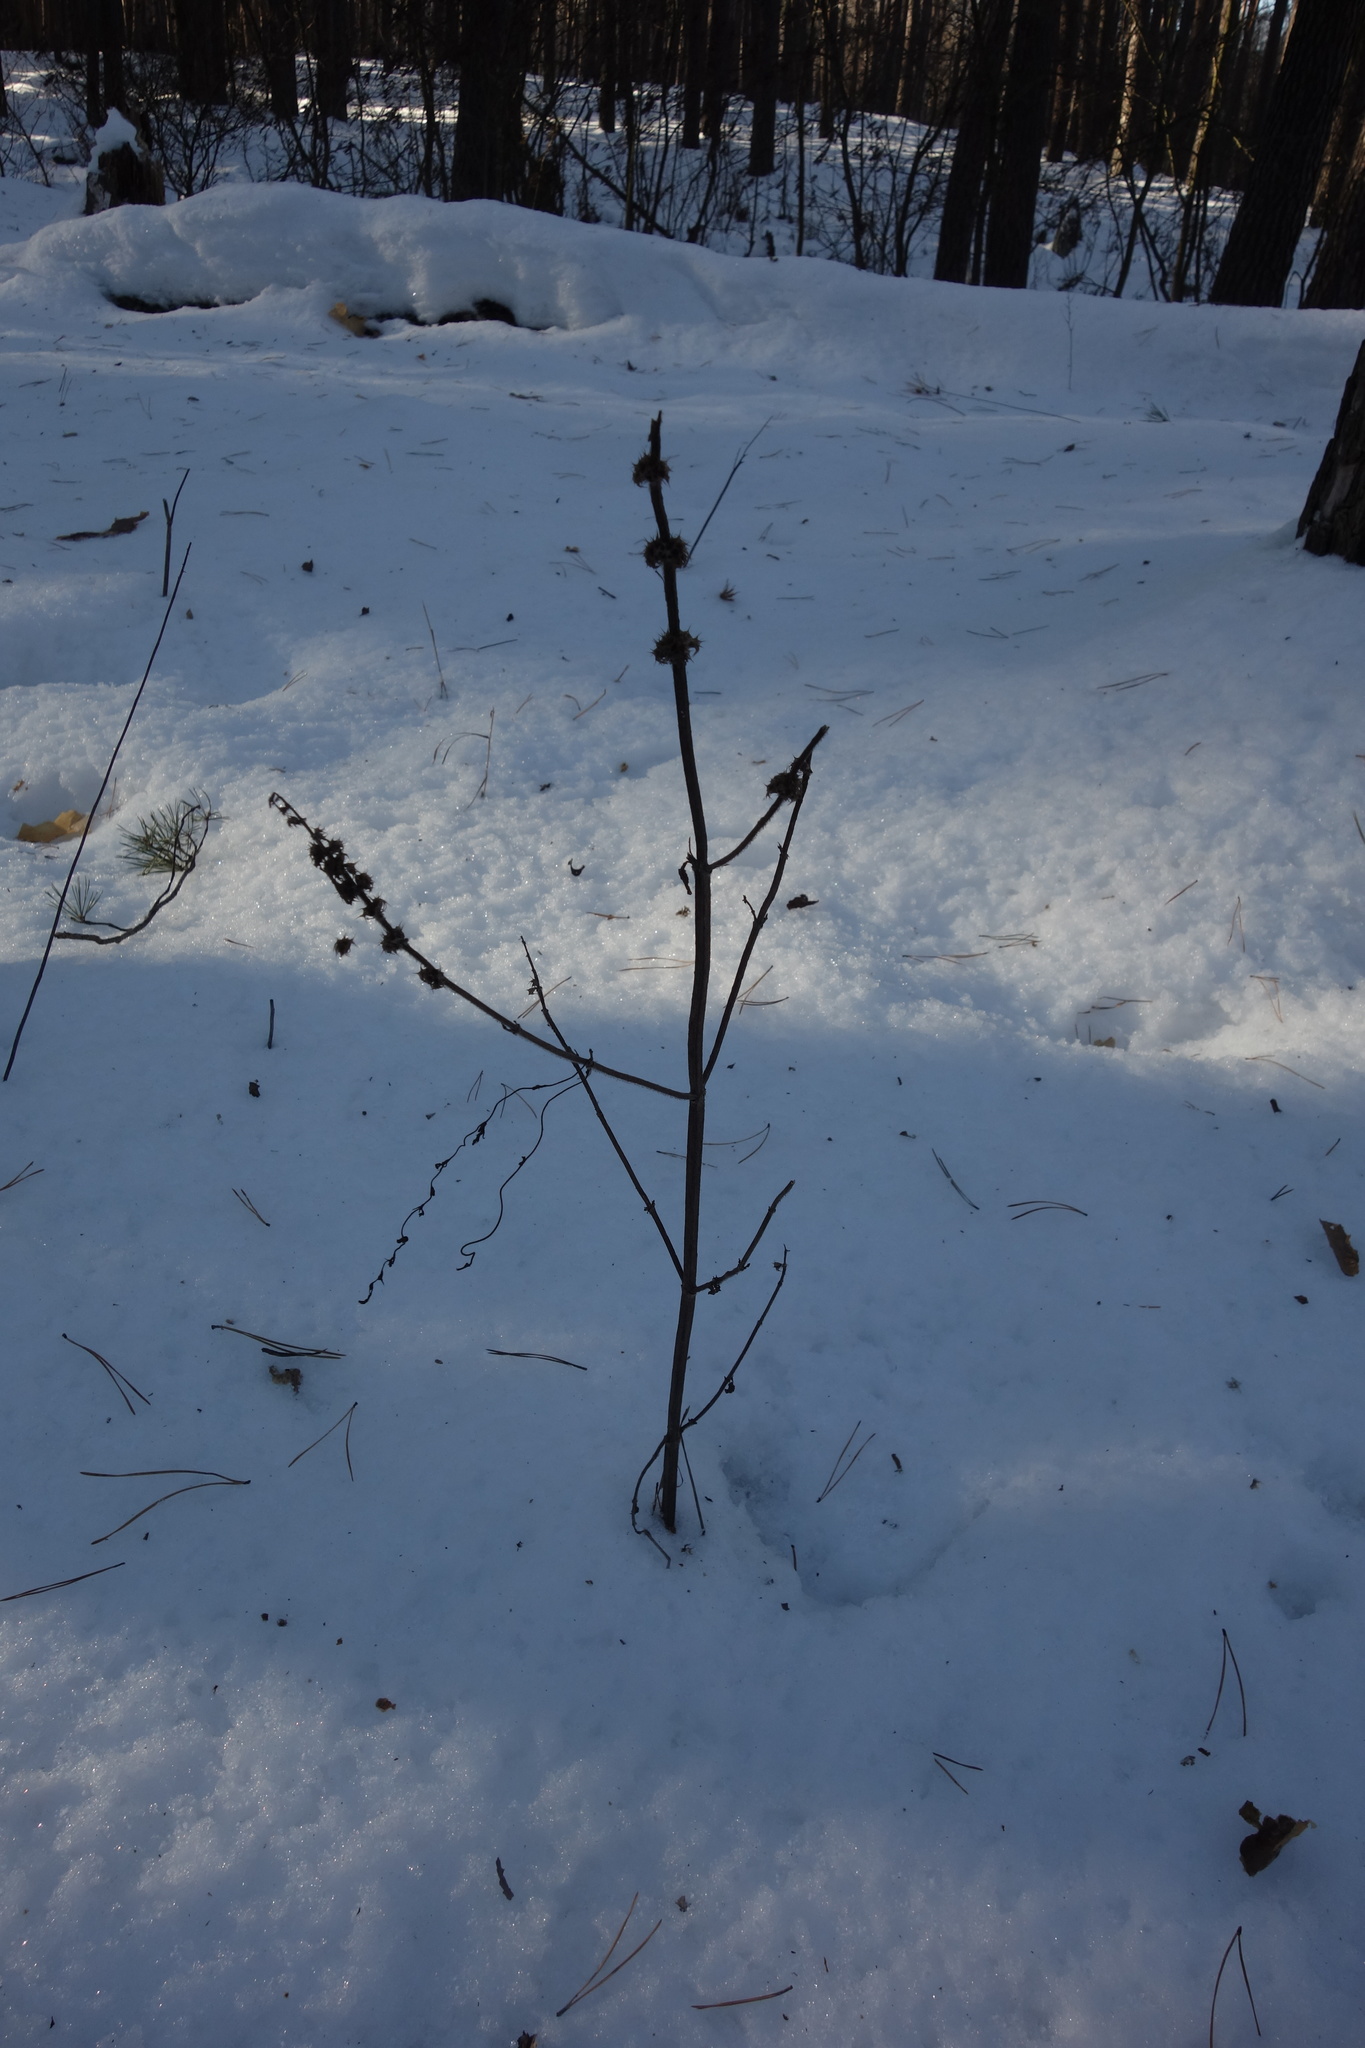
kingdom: Plantae
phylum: Tracheophyta
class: Magnoliopsida
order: Lamiales
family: Lamiaceae
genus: Leonurus
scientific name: Leonurus quinquelobatus
